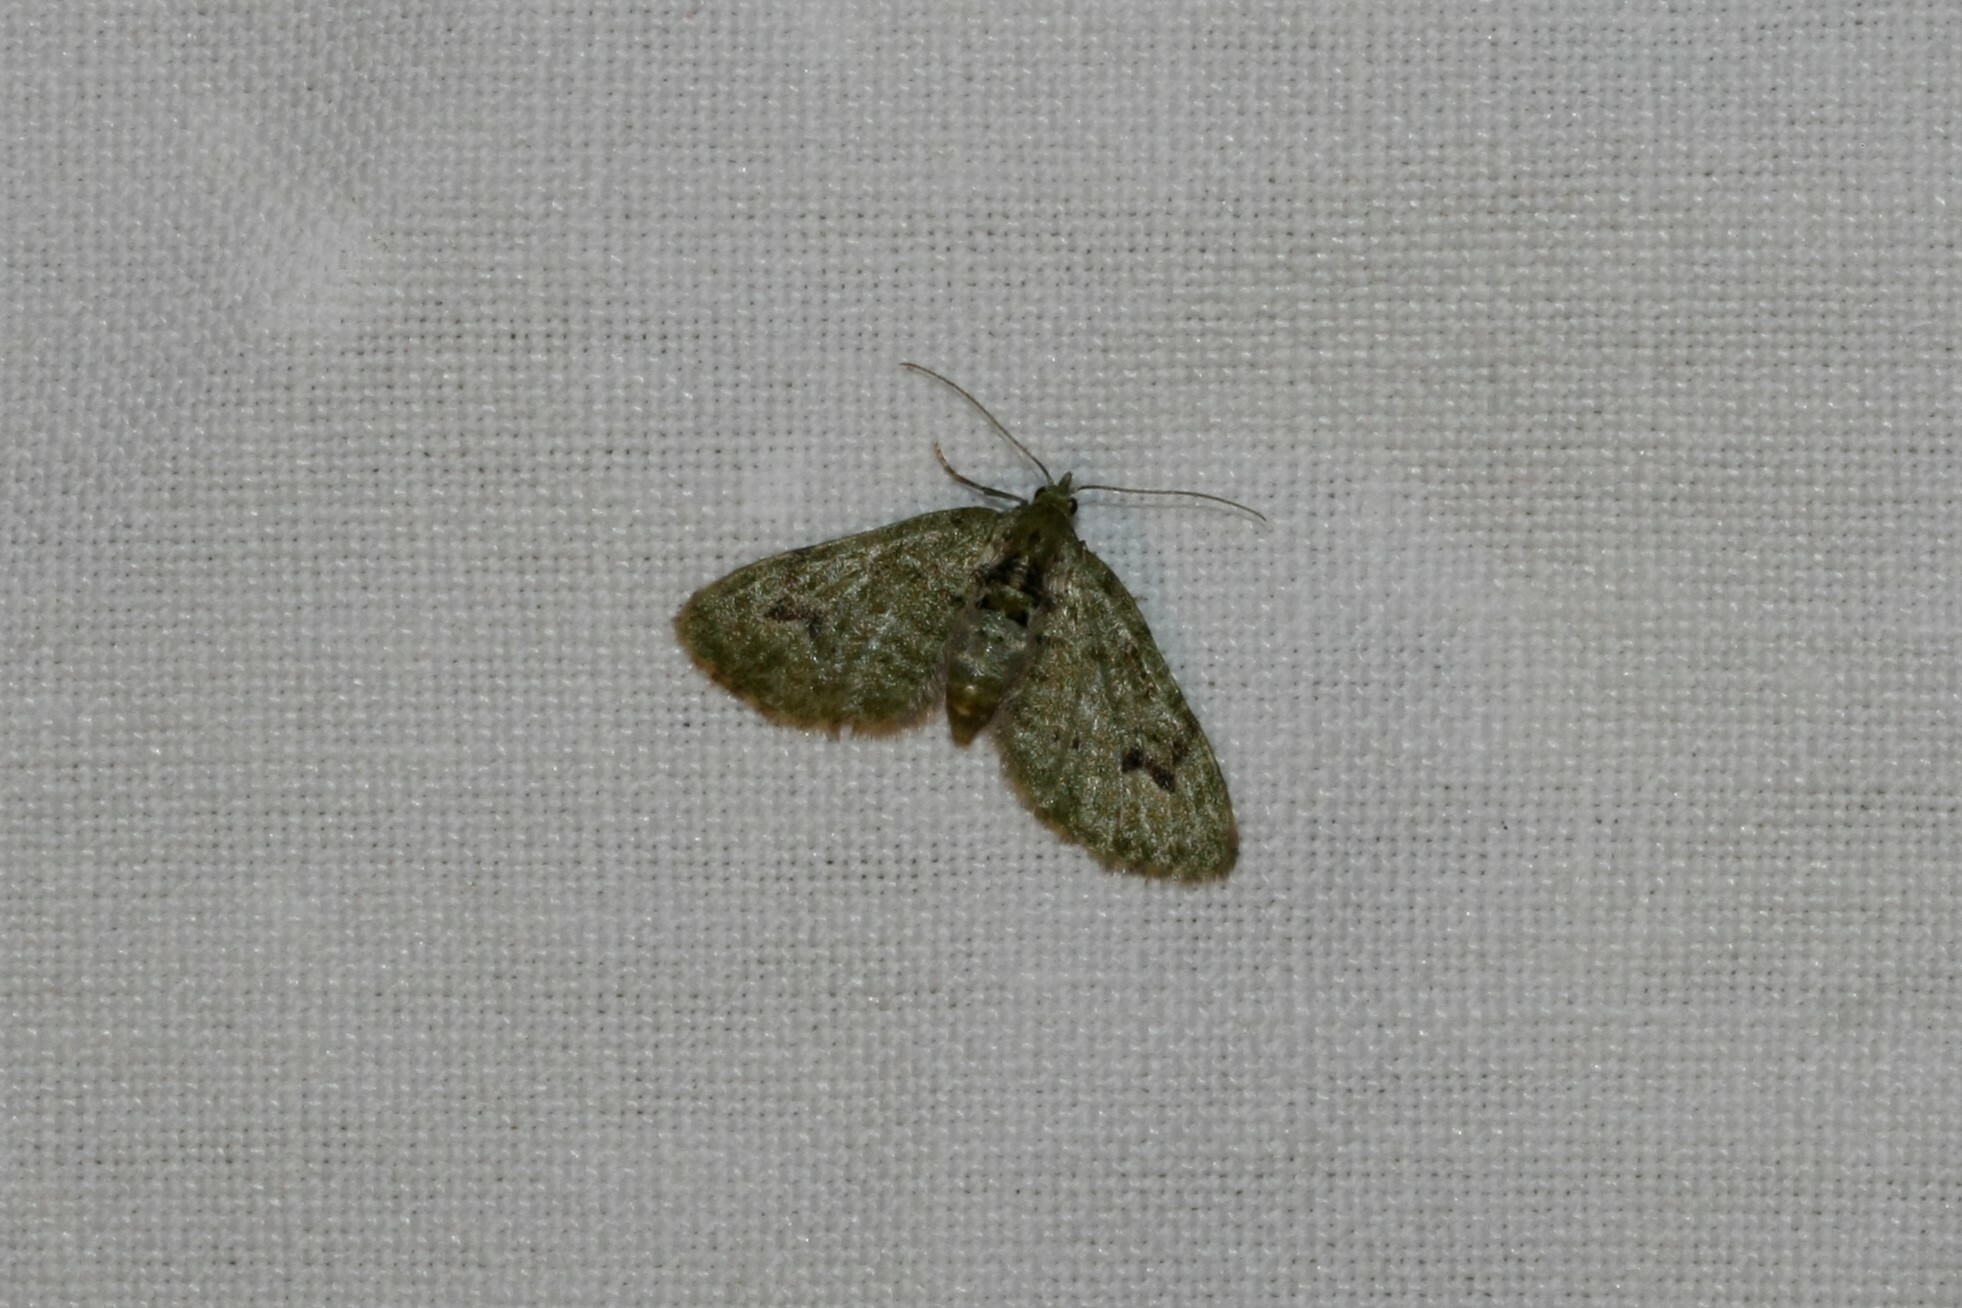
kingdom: Animalia
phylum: Arthropoda
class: Insecta
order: Lepidoptera
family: Geometridae
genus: Chloroclystis
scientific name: Chloroclystis v-ata
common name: V-pug
